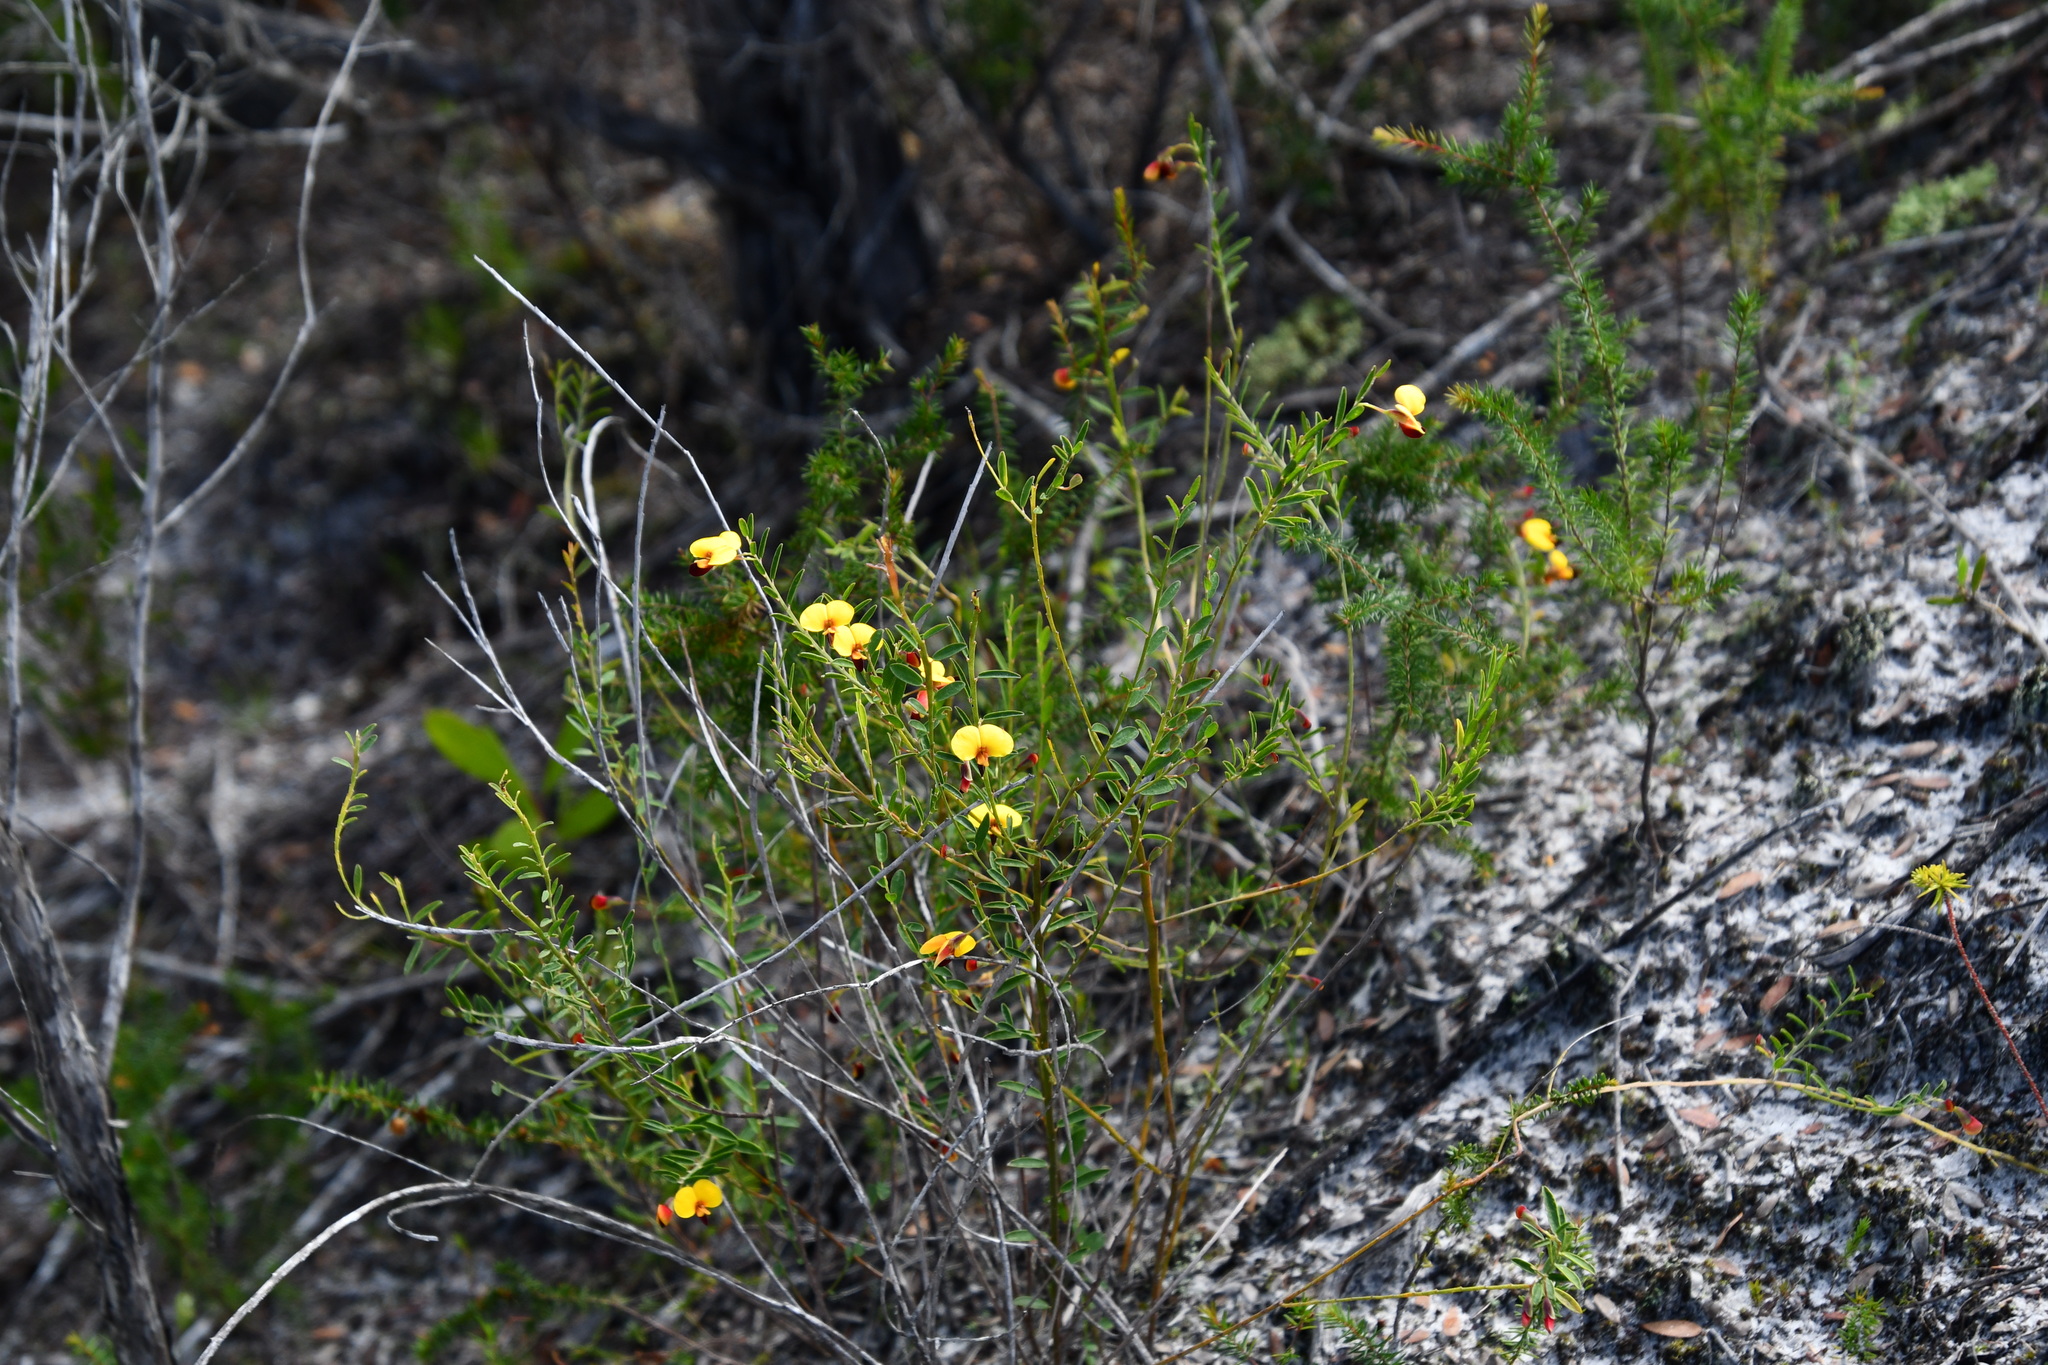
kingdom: Plantae
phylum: Tracheophyta
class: Magnoliopsida
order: Fabales
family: Fabaceae
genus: Bossiaea
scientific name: Bossiaea heterophylla
